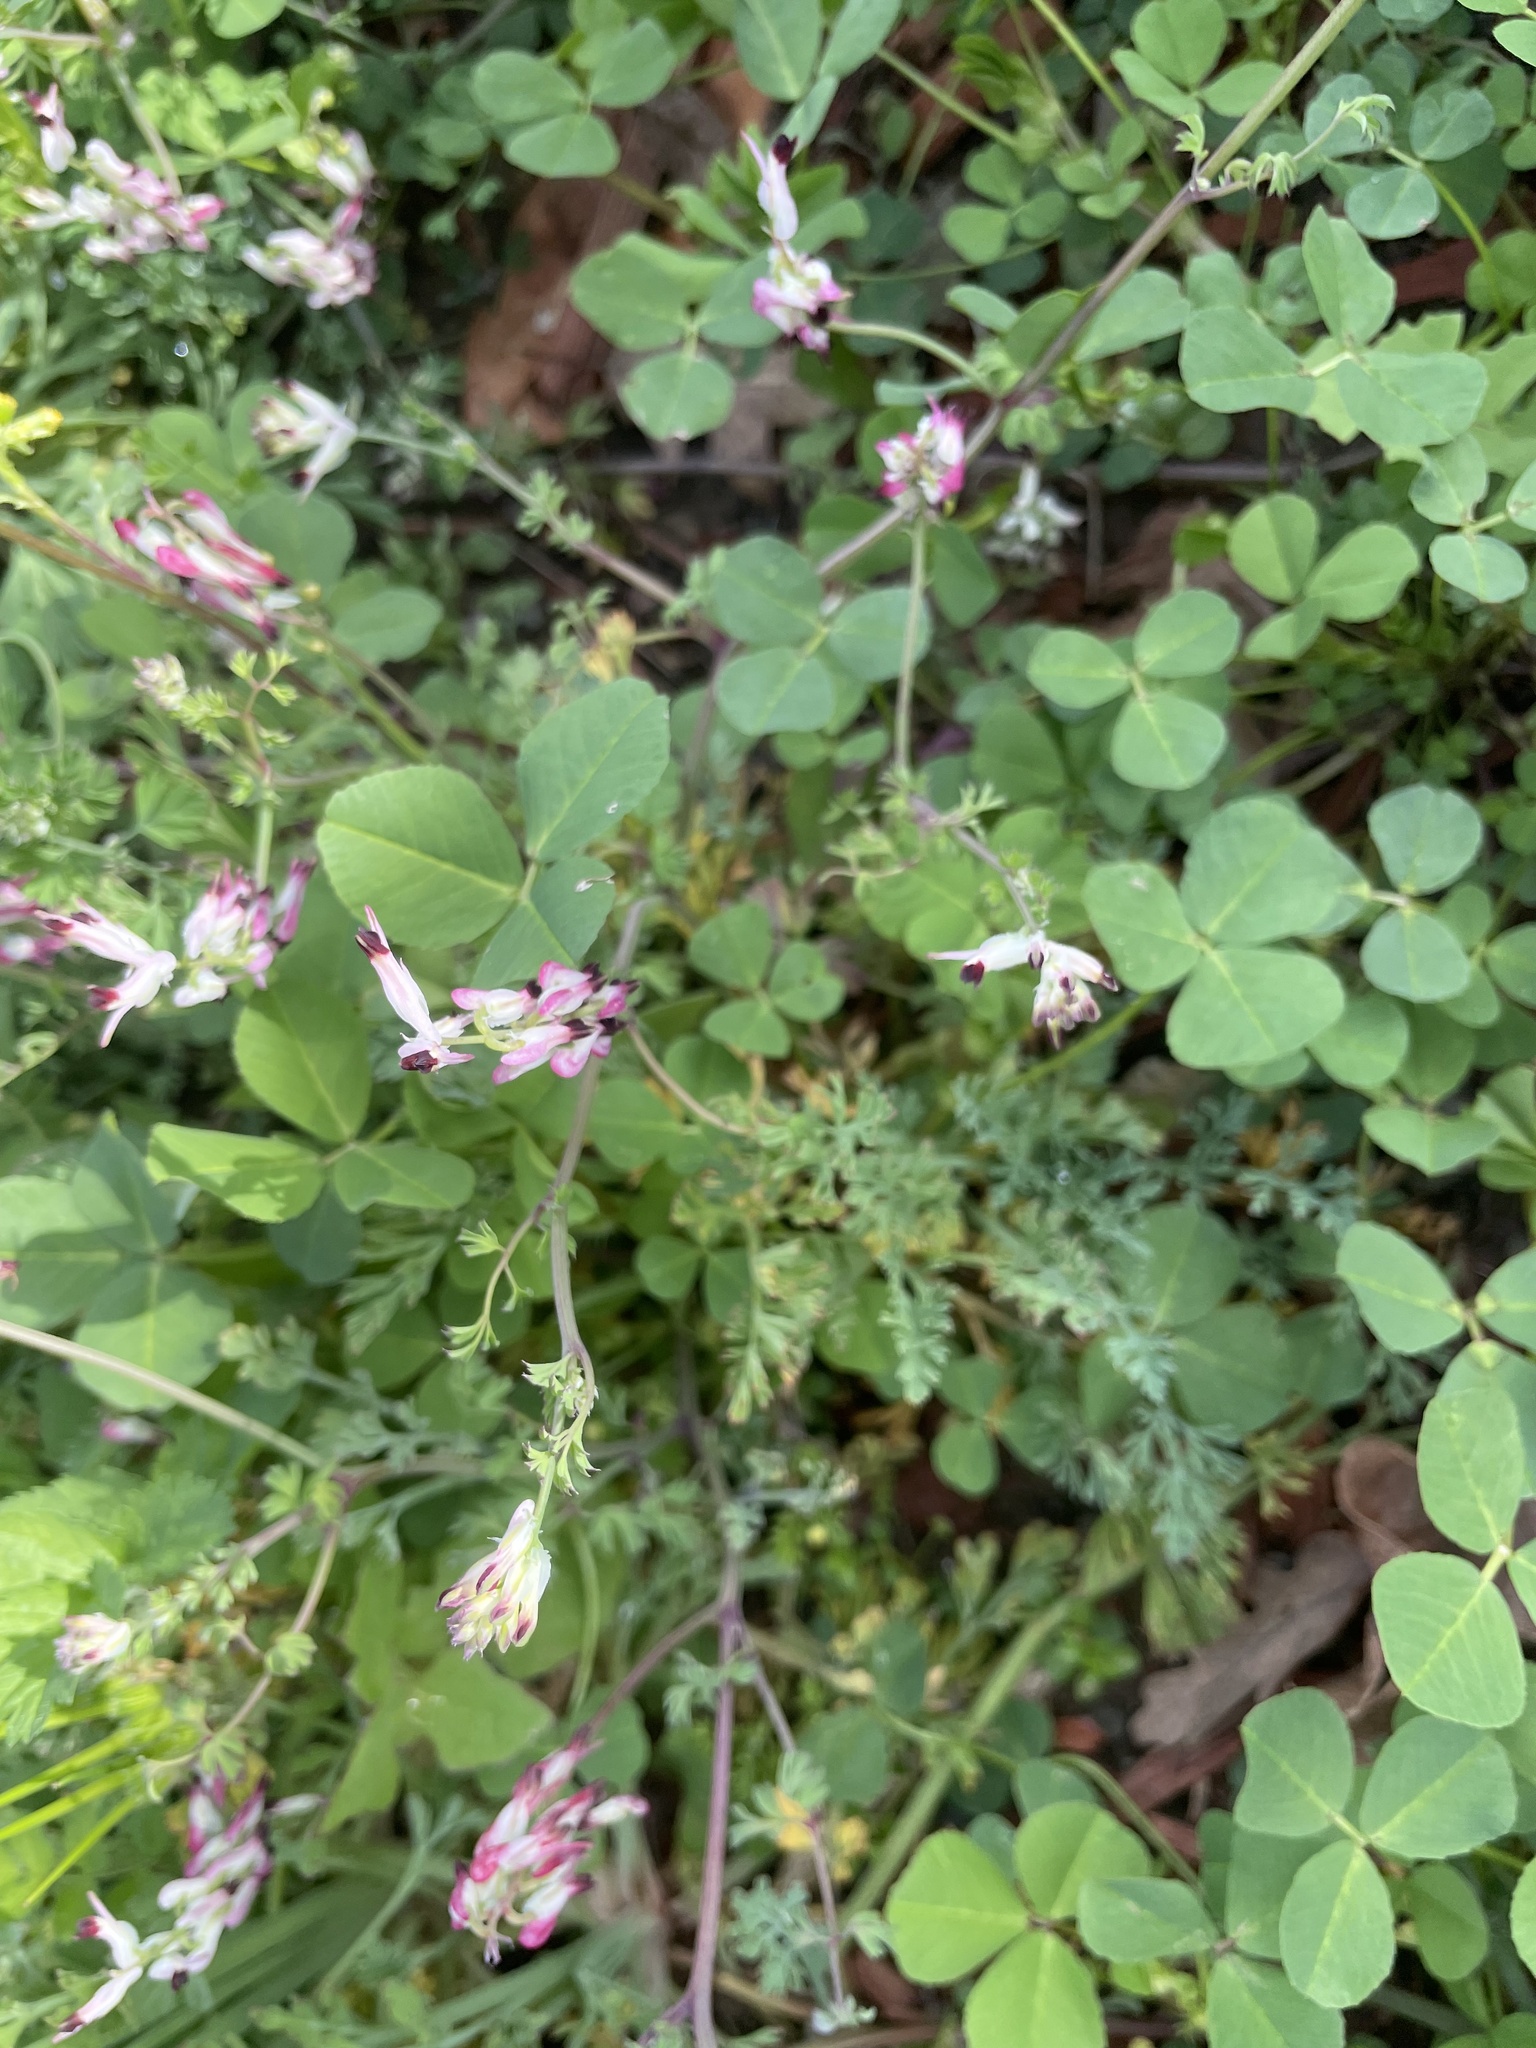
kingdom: Plantae
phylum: Tracheophyta
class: Magnoliopsida
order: Ranunculales
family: Papaveraceae
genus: Fumaria
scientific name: Fumaria capreolata
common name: White ramping-fumitory
